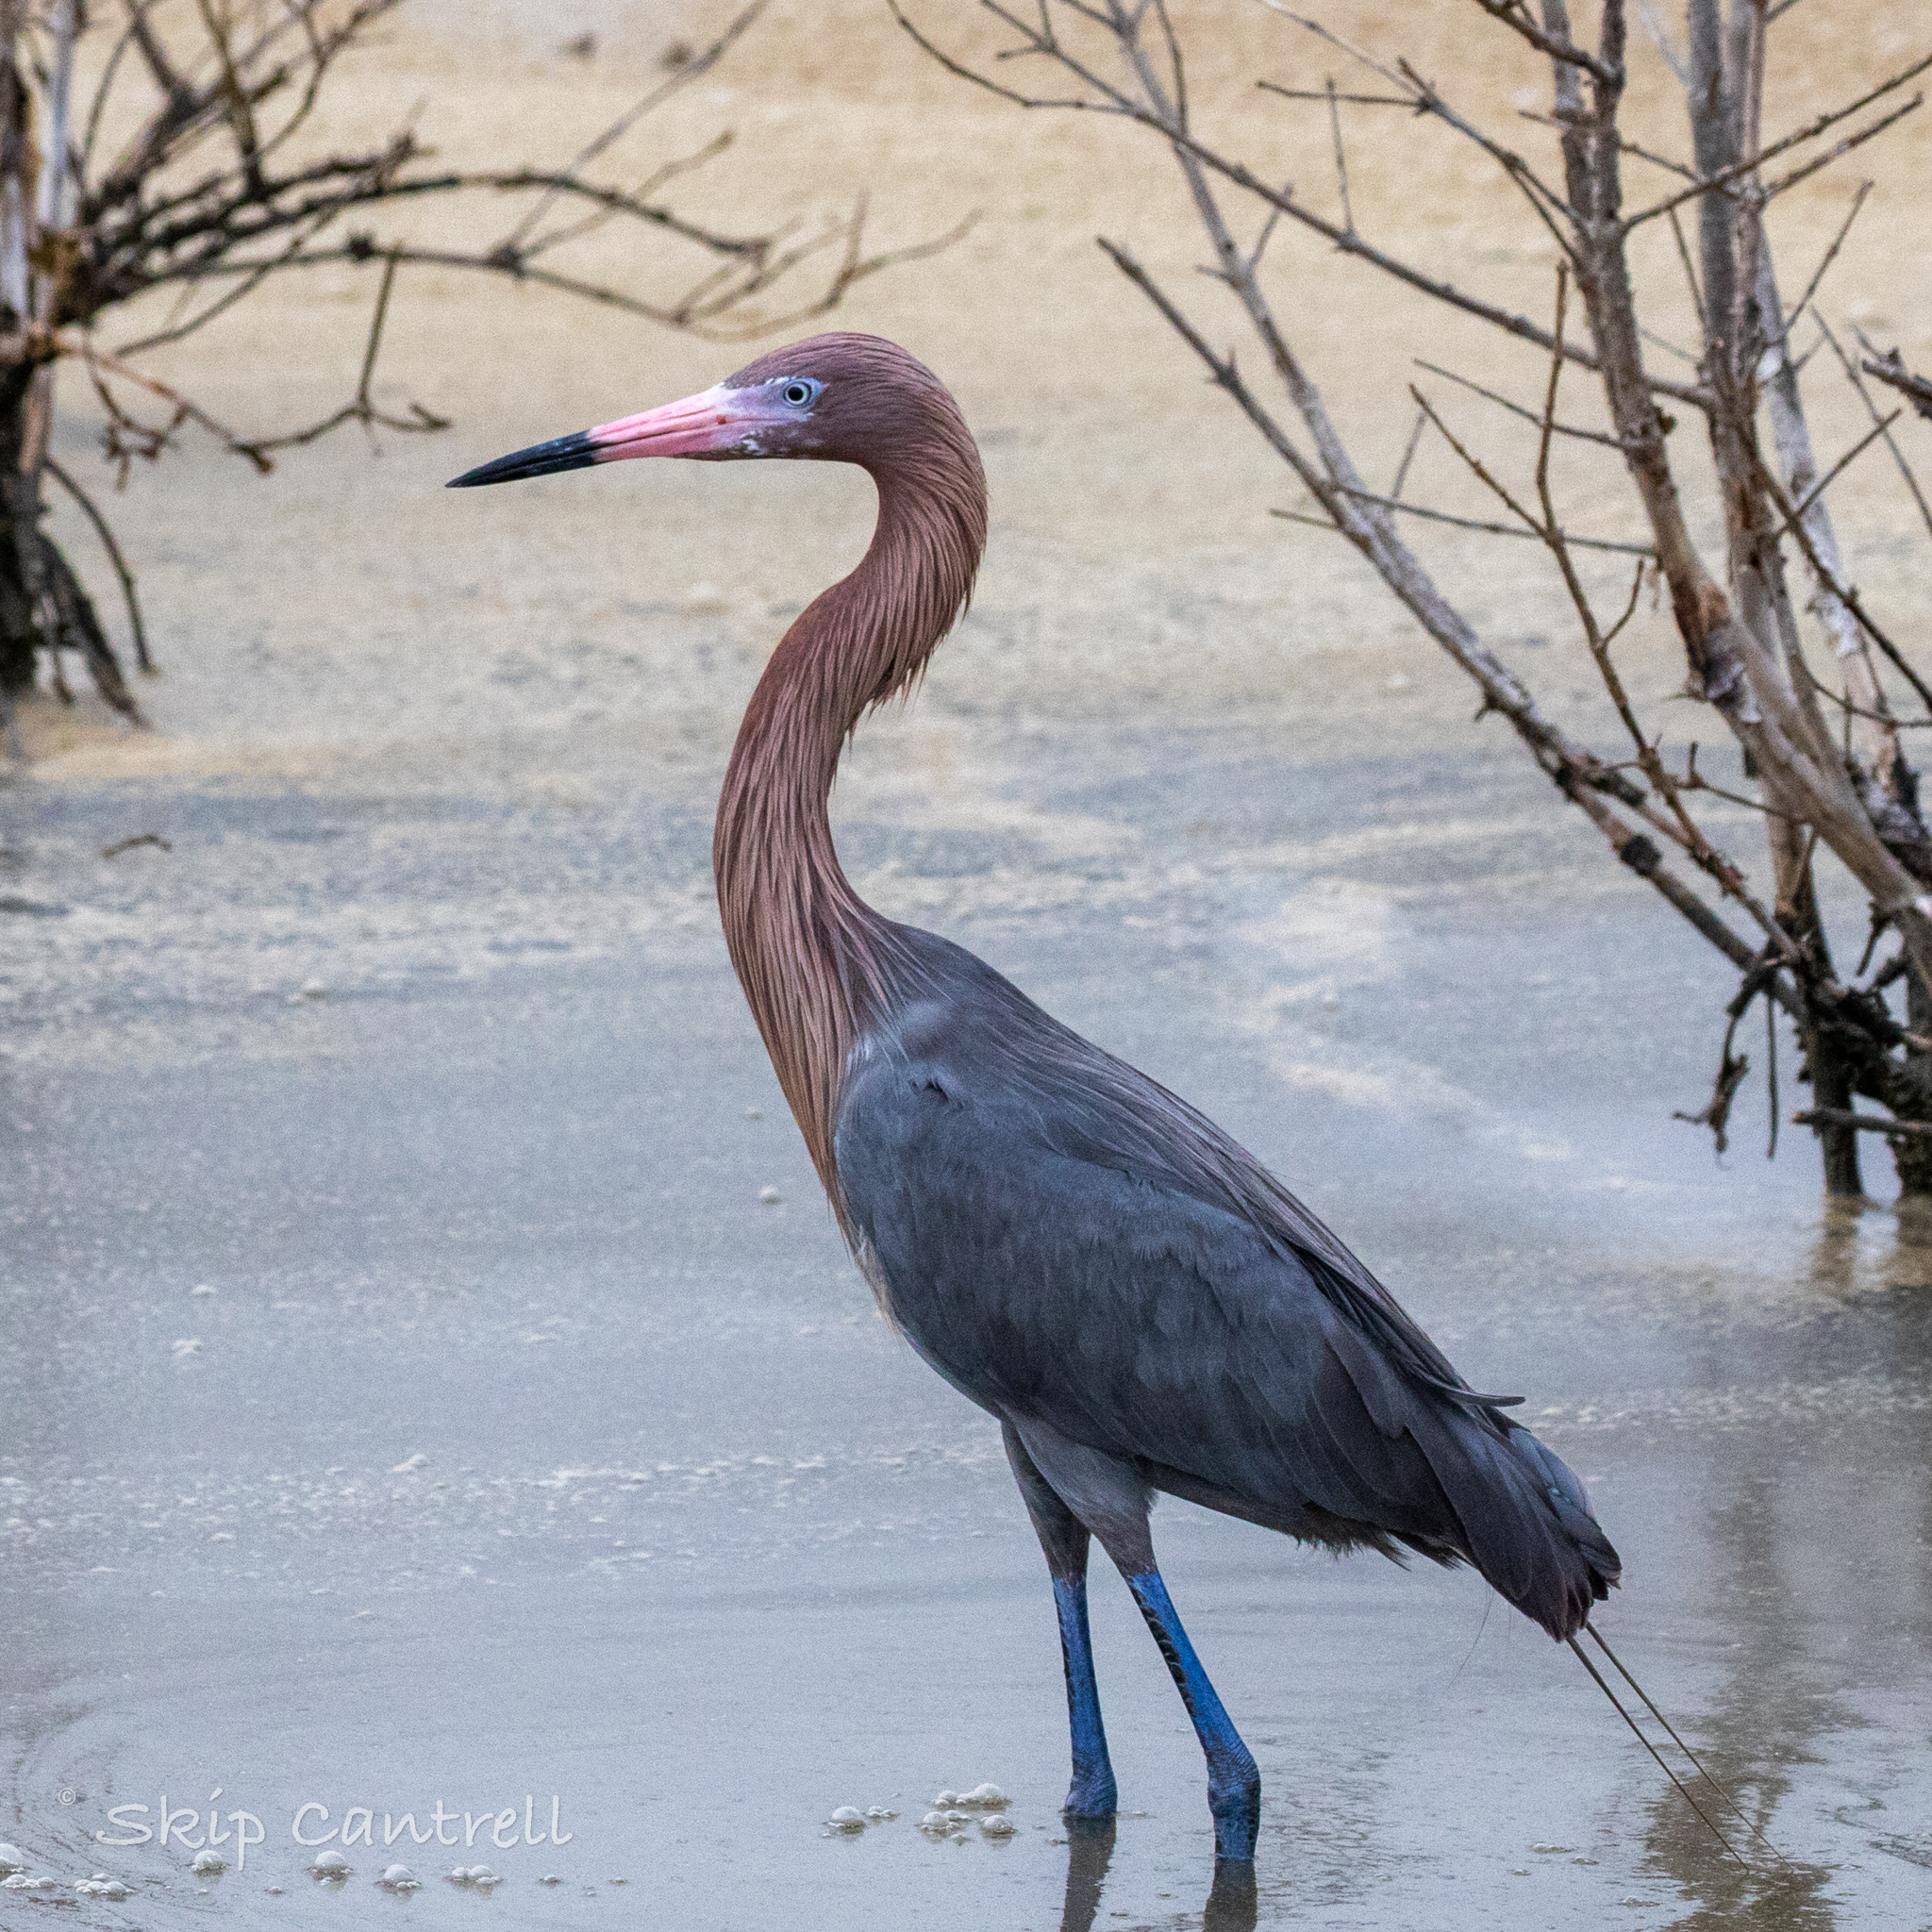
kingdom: Animalia
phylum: Chordata
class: Aves
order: Pelecaniformes
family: Ardeidae
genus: Egretta
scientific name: Egretta rufescens
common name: Reddish egret
